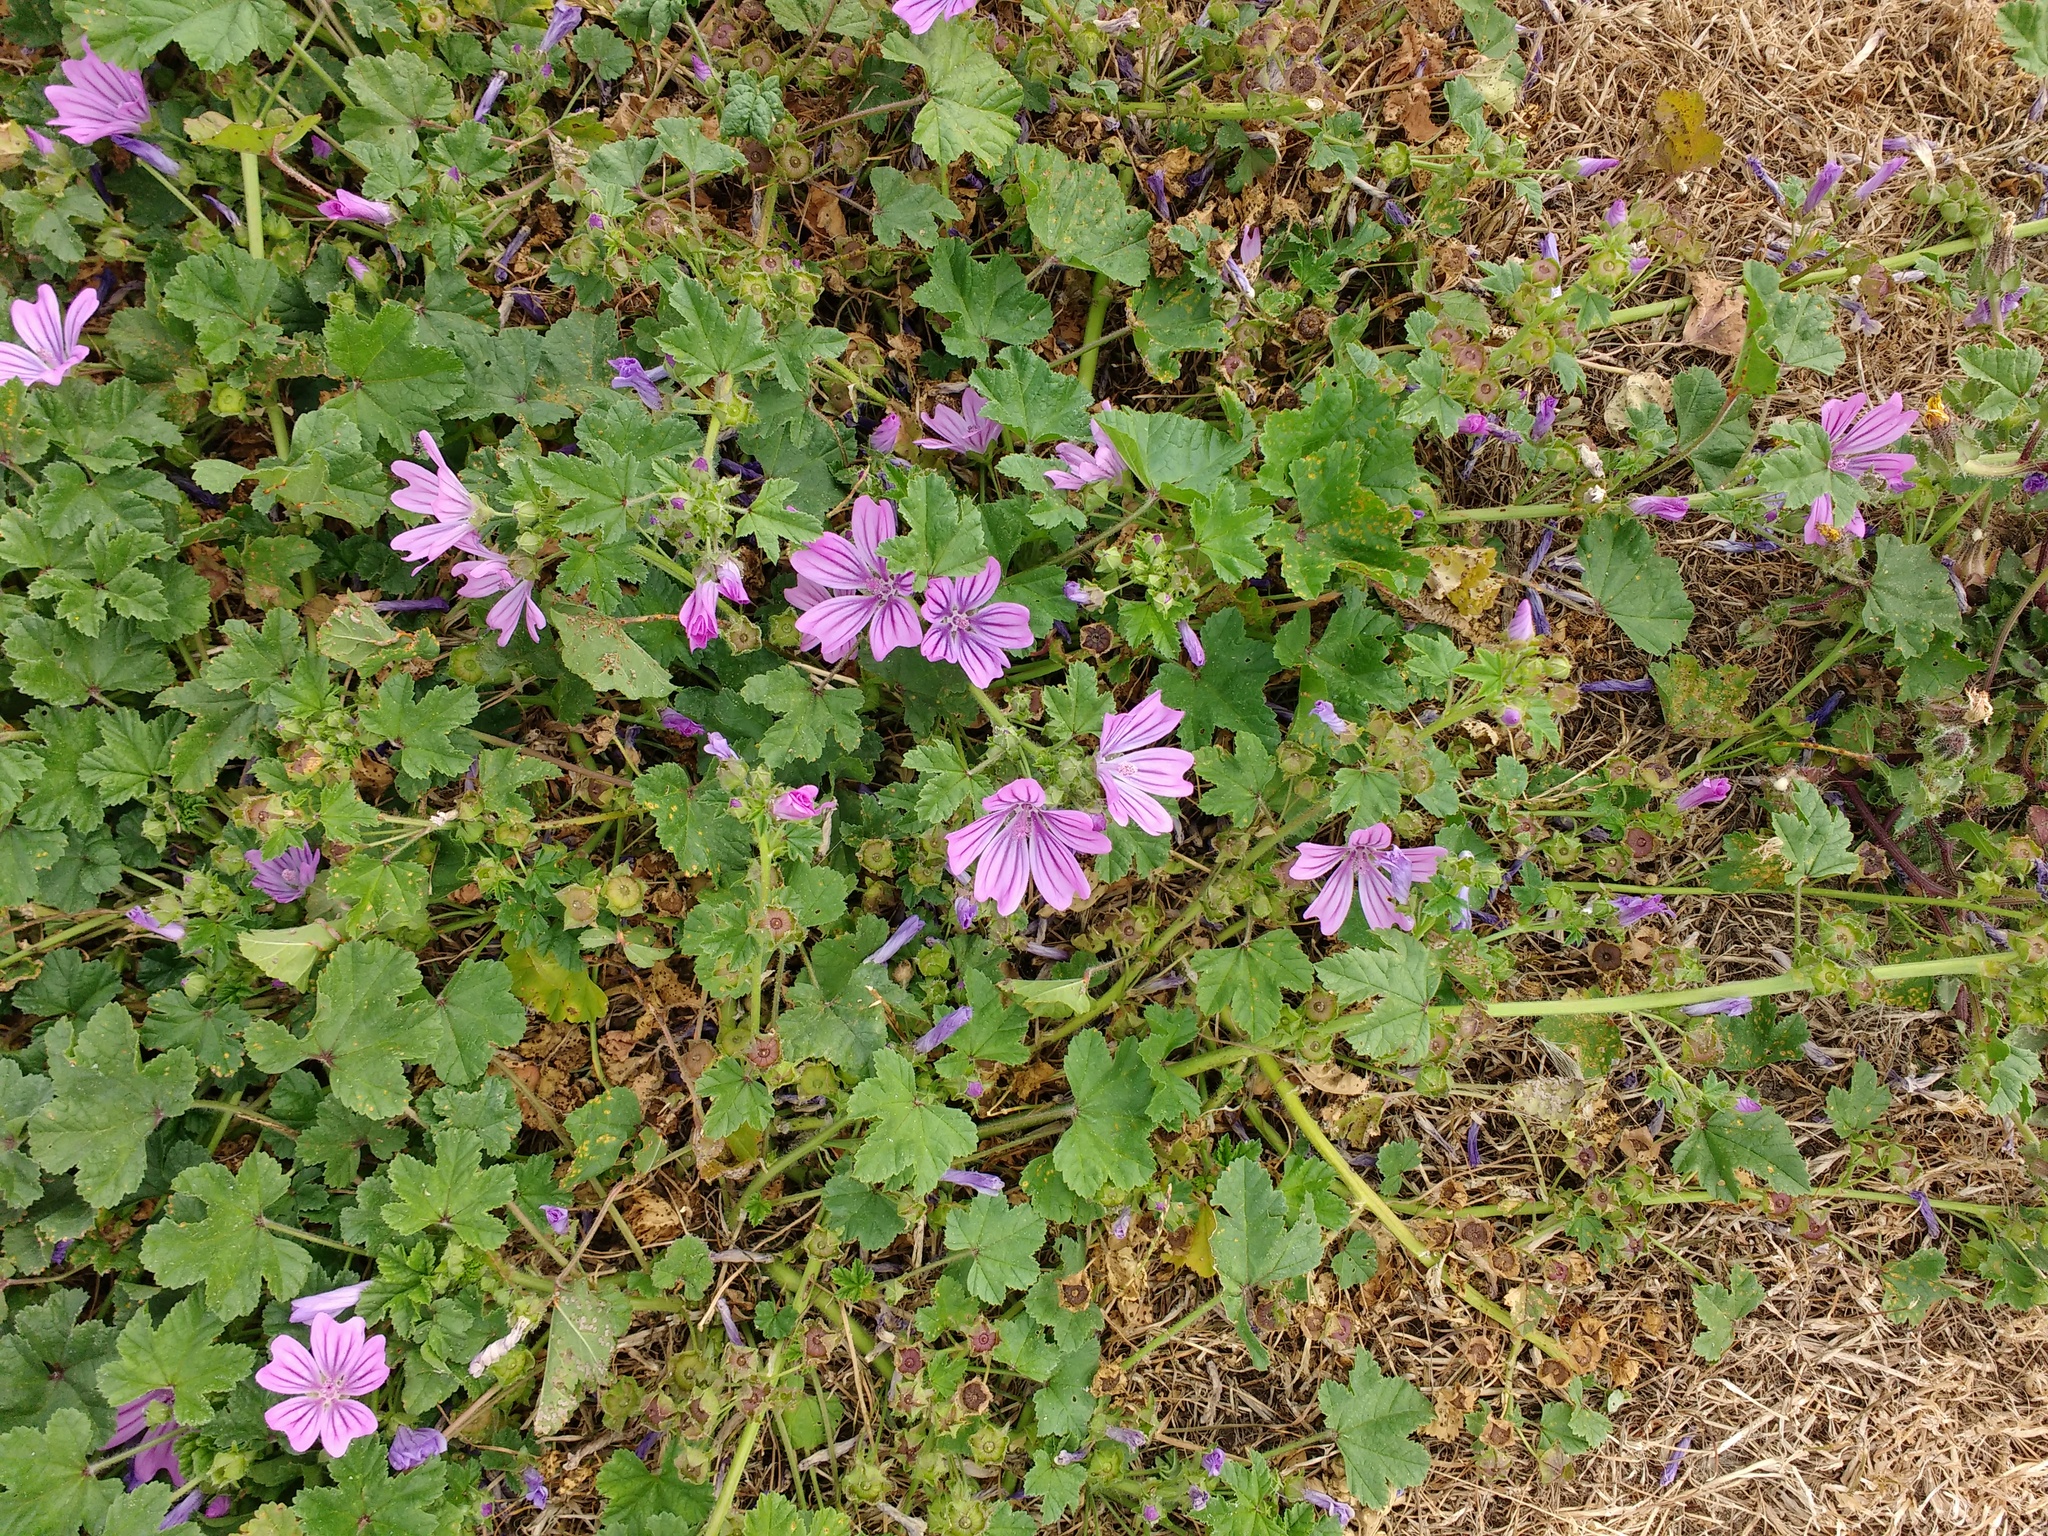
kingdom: Plantae
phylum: Tracheophyta
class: Magnoliopsida
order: Malvales
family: Malvaceae
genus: Malva
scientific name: Malva sylvestris
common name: Common mallow
